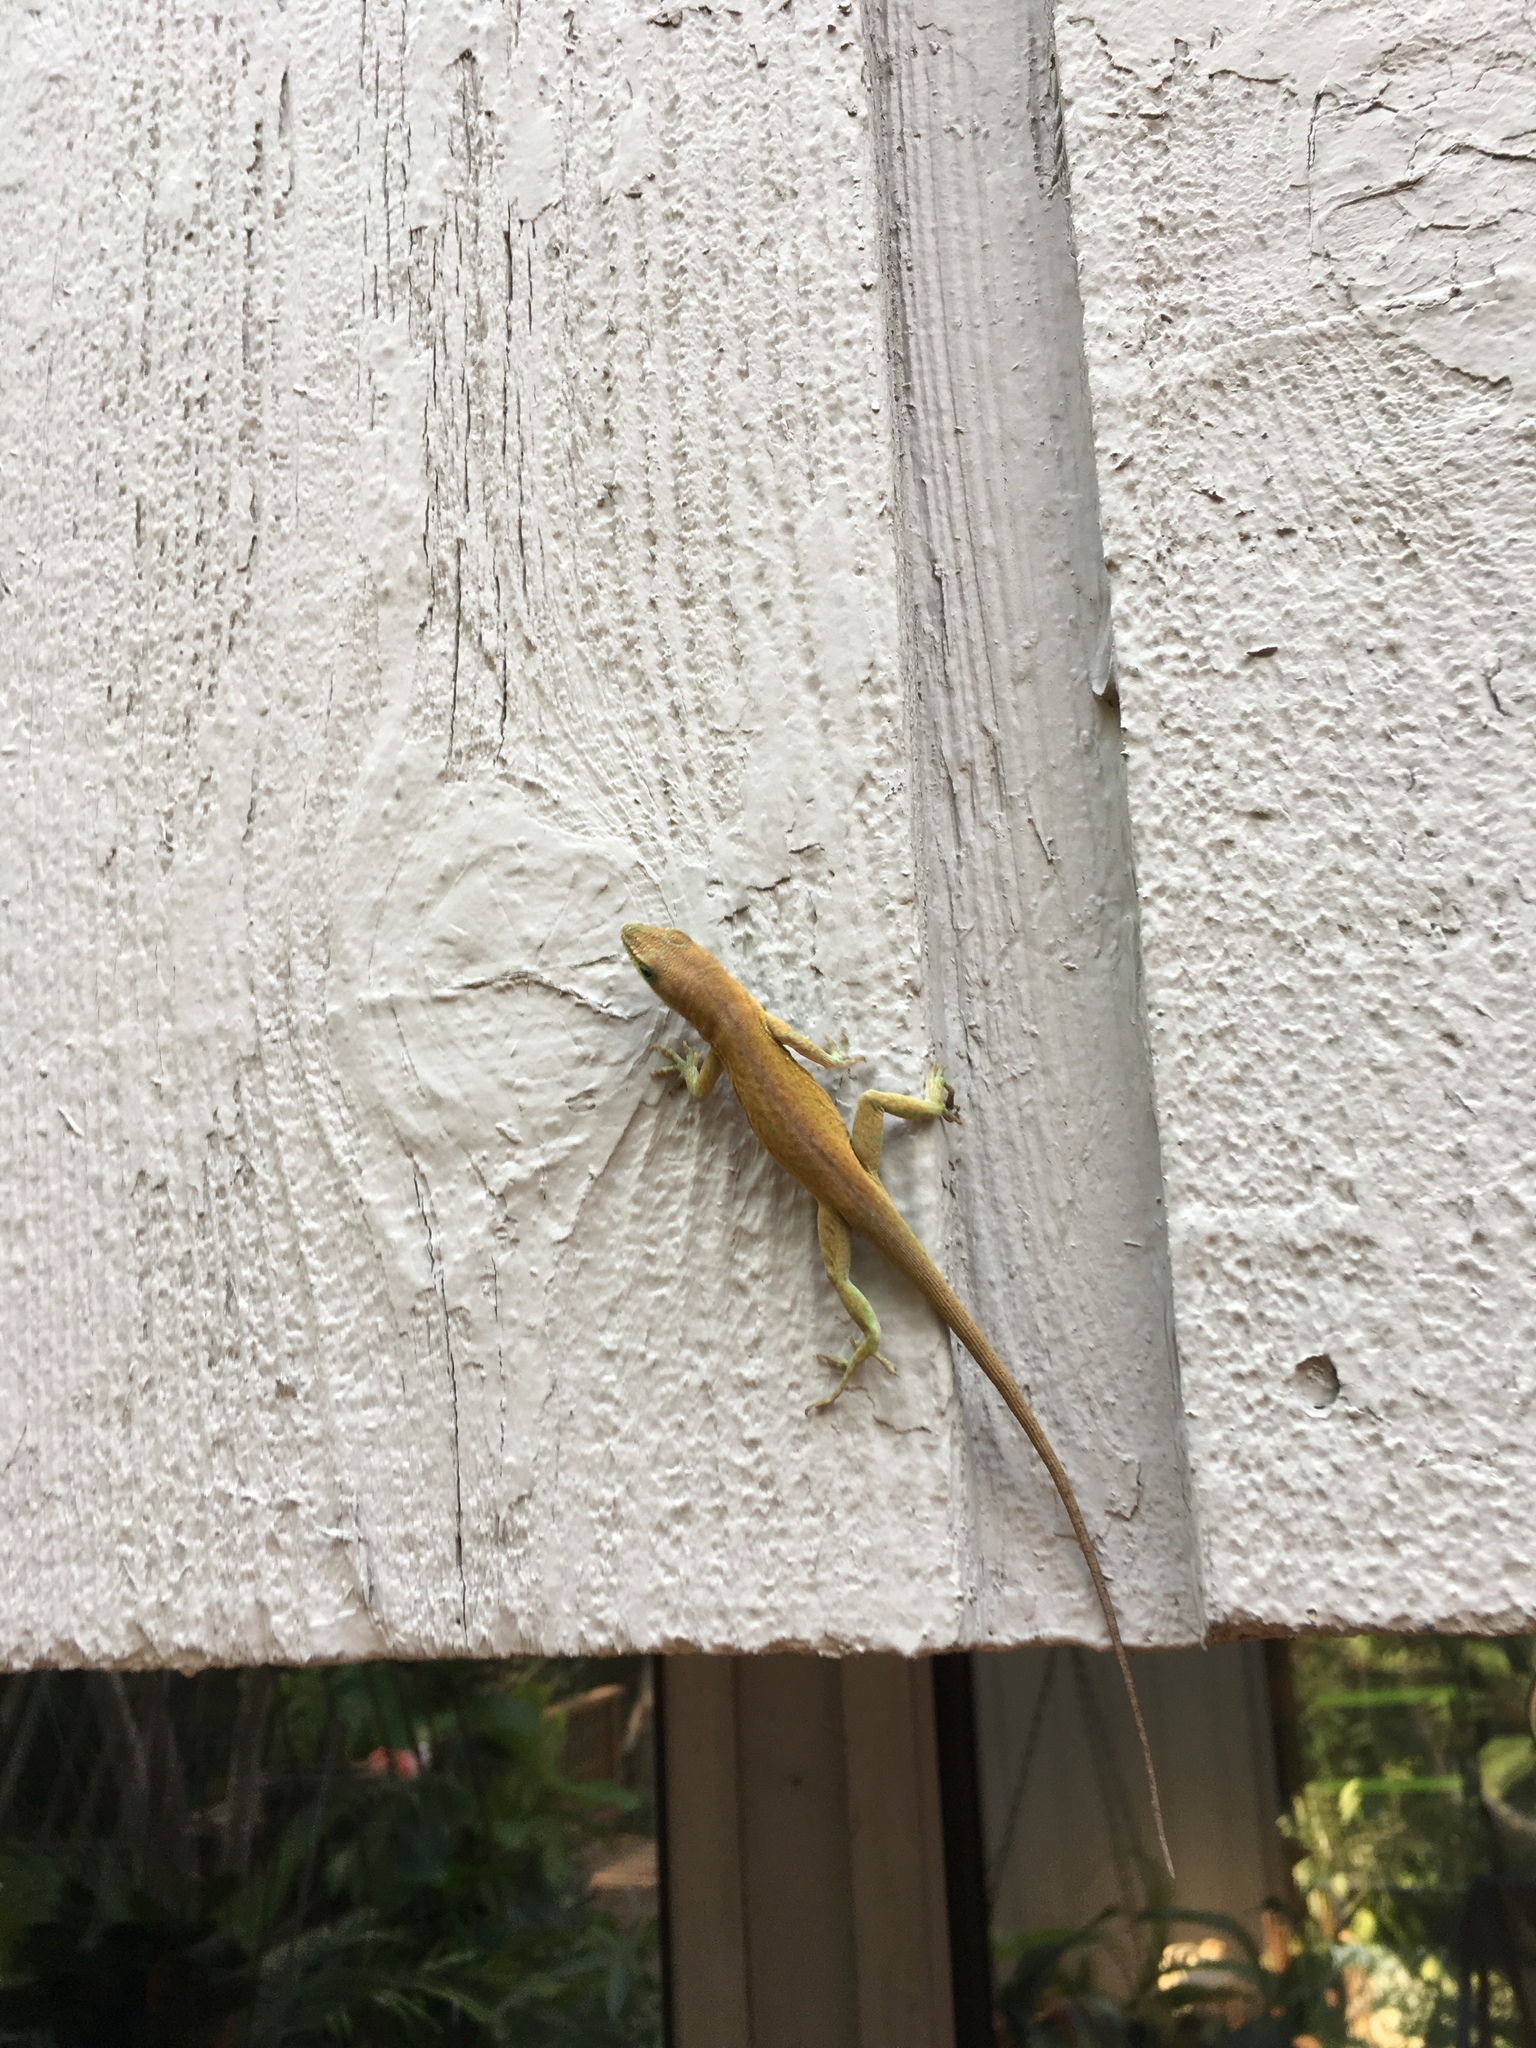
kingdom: Animalia
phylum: Chordata
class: Squamata
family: Dactyloidae
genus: Anolis
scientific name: Anolis carolinensis
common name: Green anole
